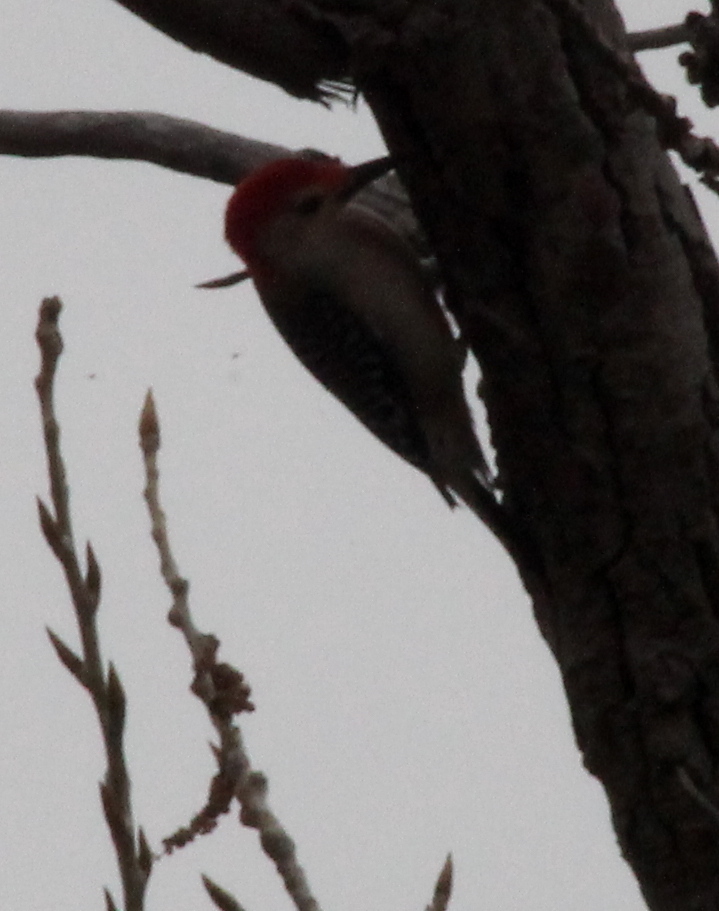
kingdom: Animalia
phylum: Chordata
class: Aves
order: Piciformes
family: Picidae
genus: Melanerpes
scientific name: Melanerpes carolinus
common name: Red-bellied woodpecker
